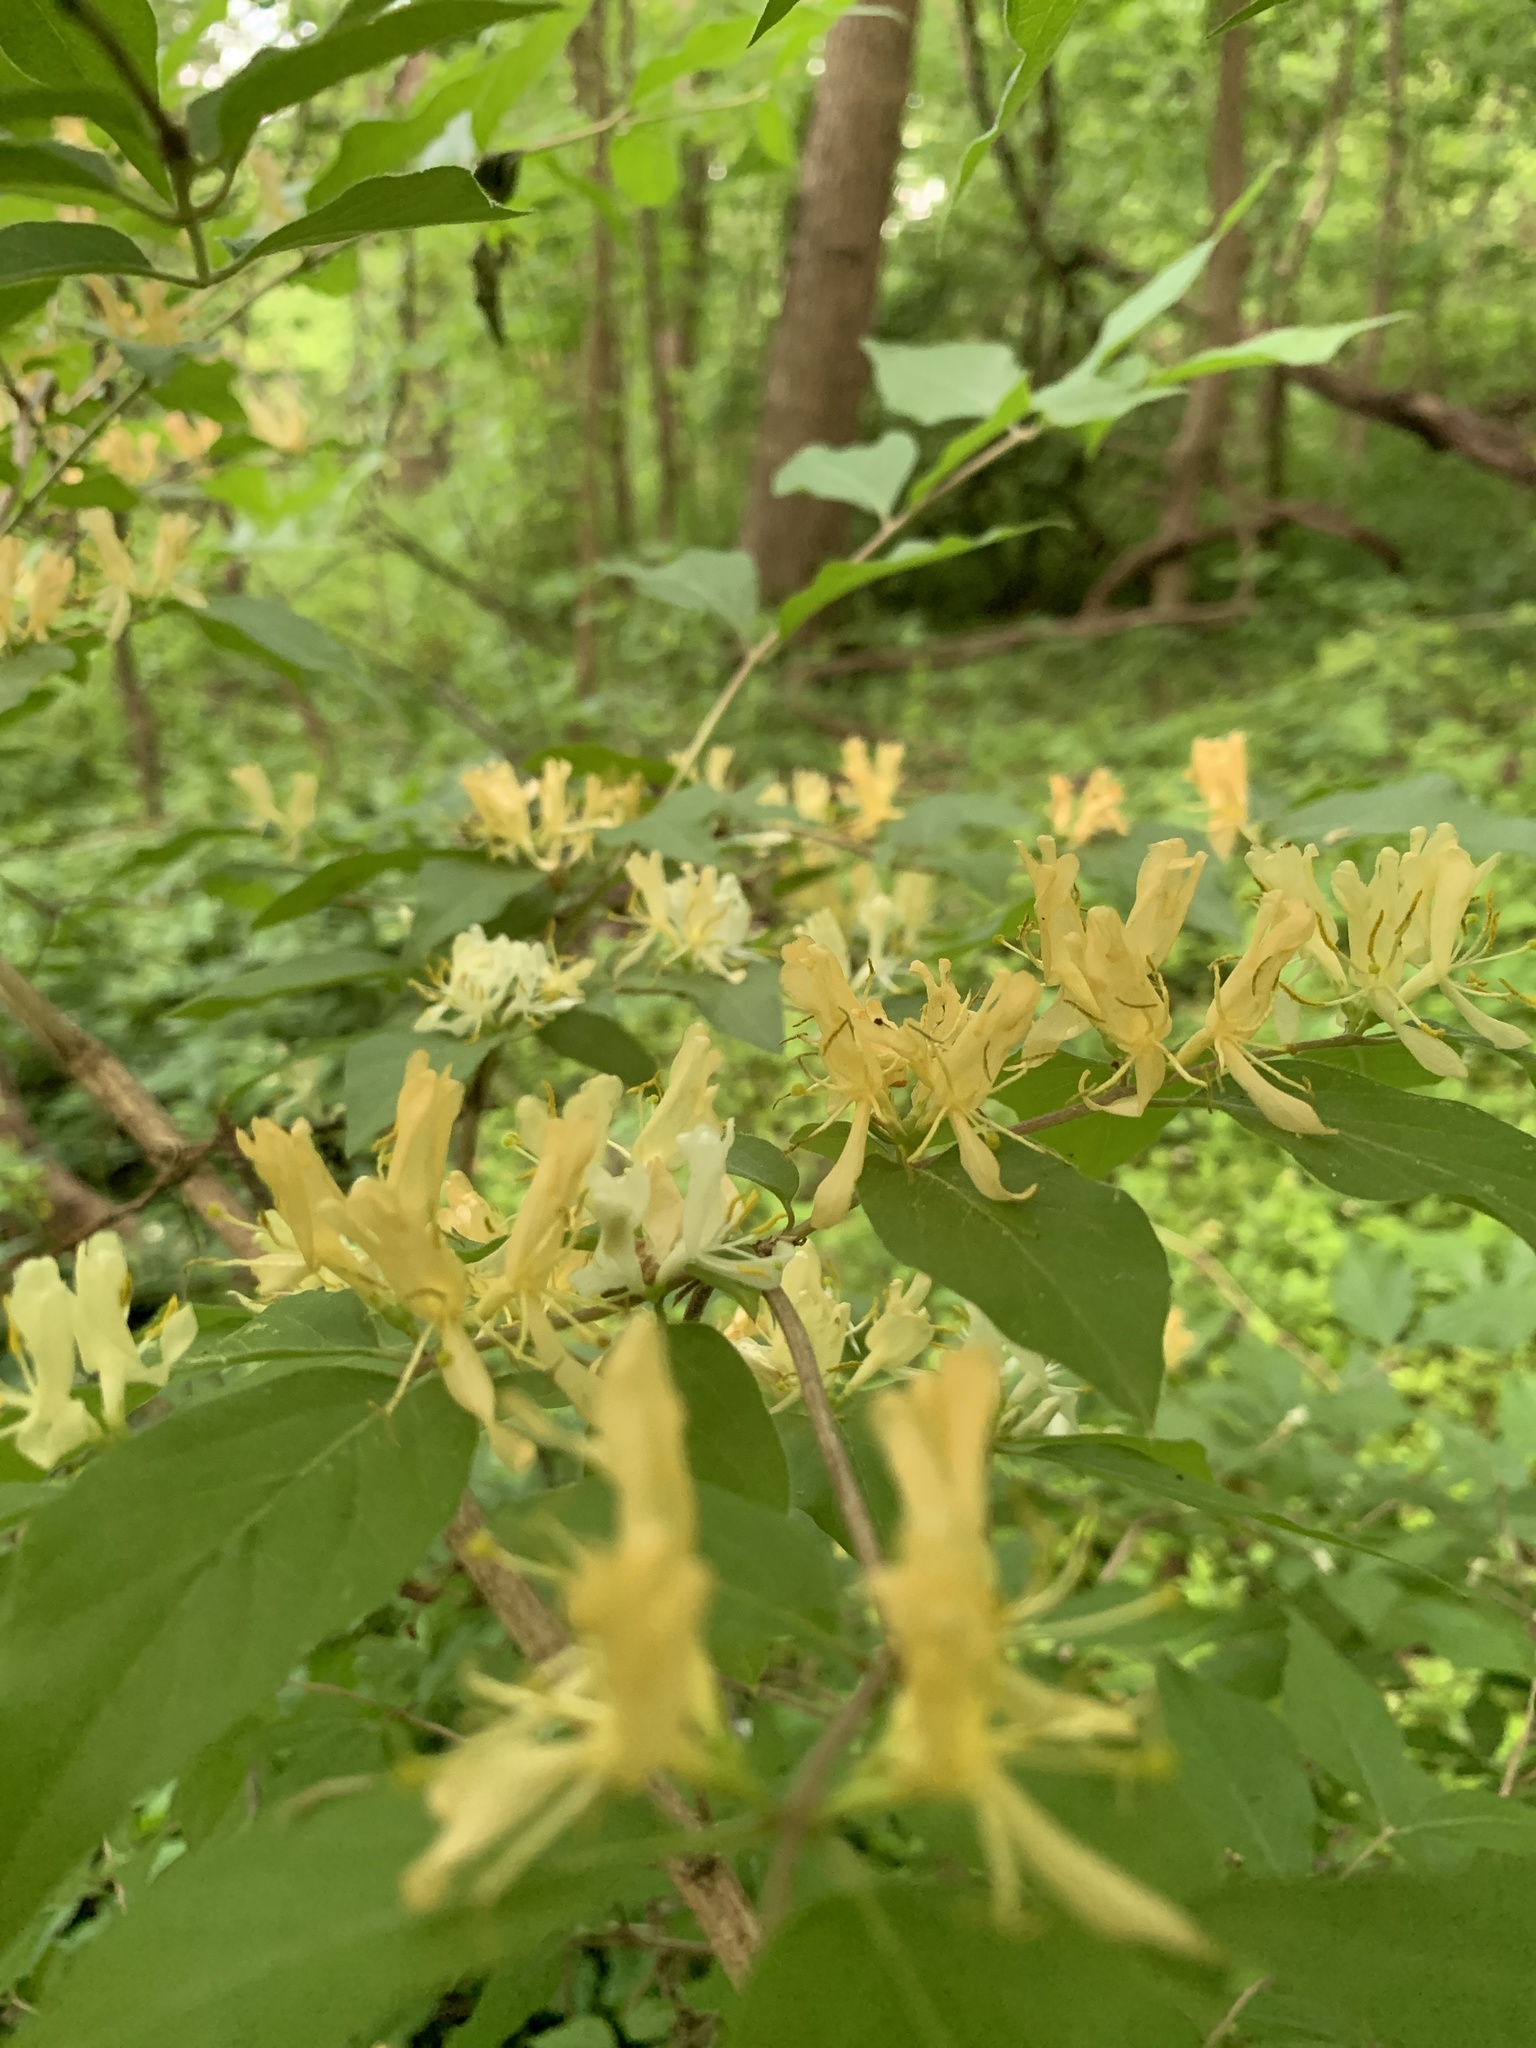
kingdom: Plantae
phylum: Tracheophyta
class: Magnoliopsida
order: Dipsacales
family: Caprifoliaceae
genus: Lonicera
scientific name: Lonicera japonica
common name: Japanese honeysuckle
